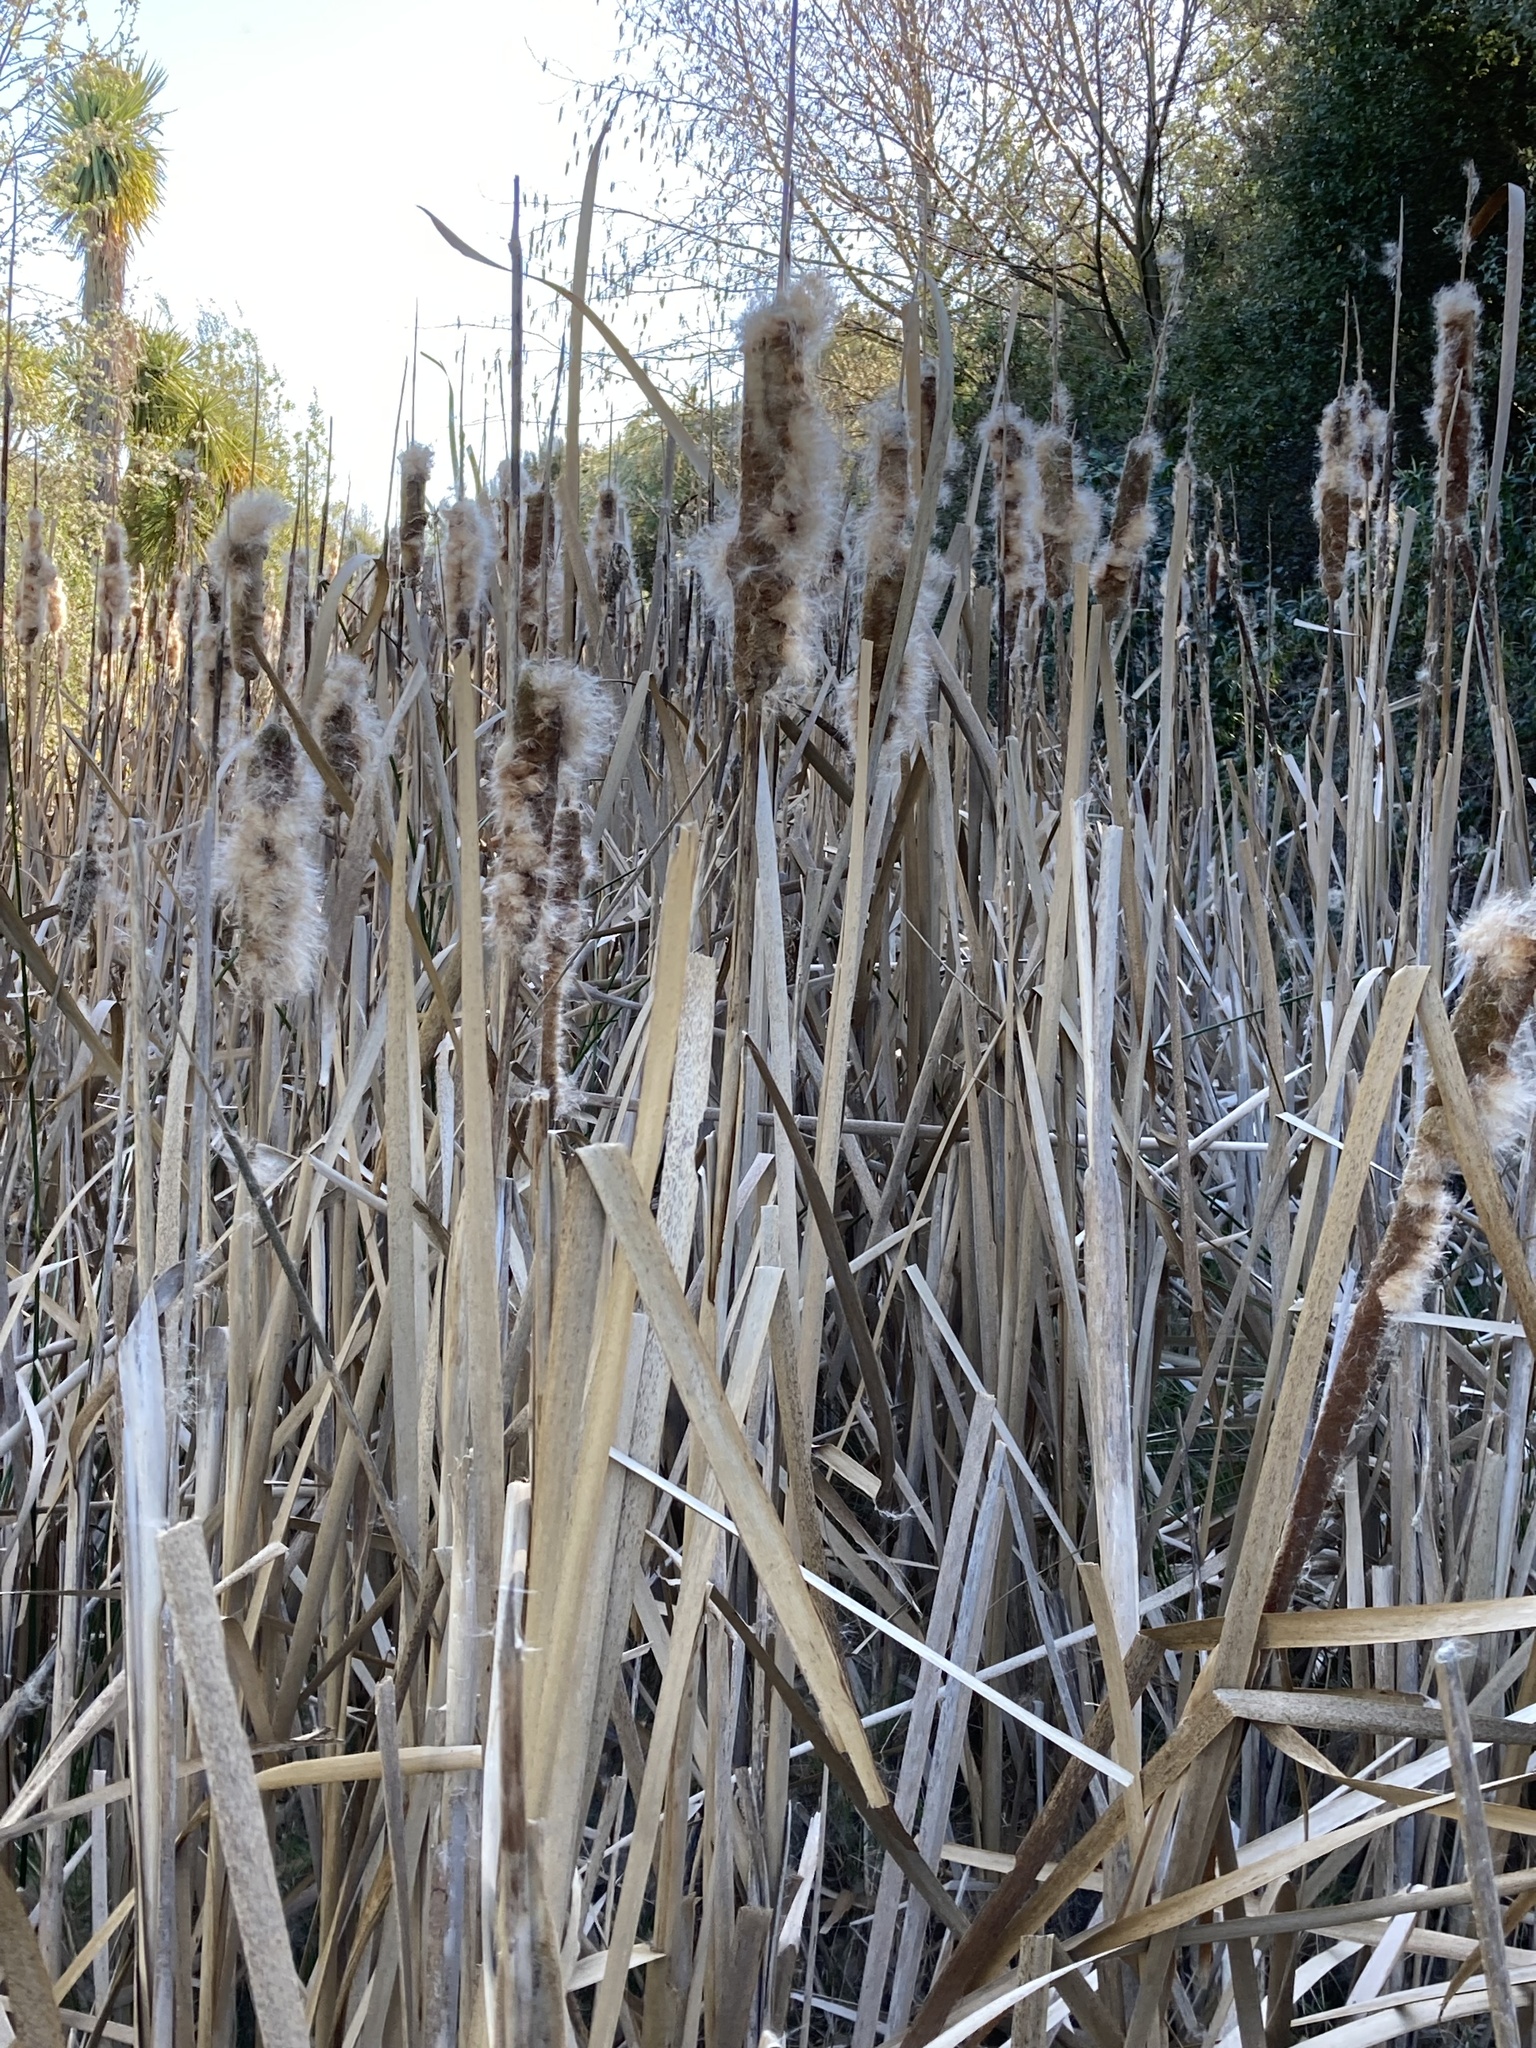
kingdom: Plantae
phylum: Tracheophyta
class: Liliopsida
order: Poales
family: Typhaceae
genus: Typha
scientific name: Typha orientalis
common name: Bullrush
